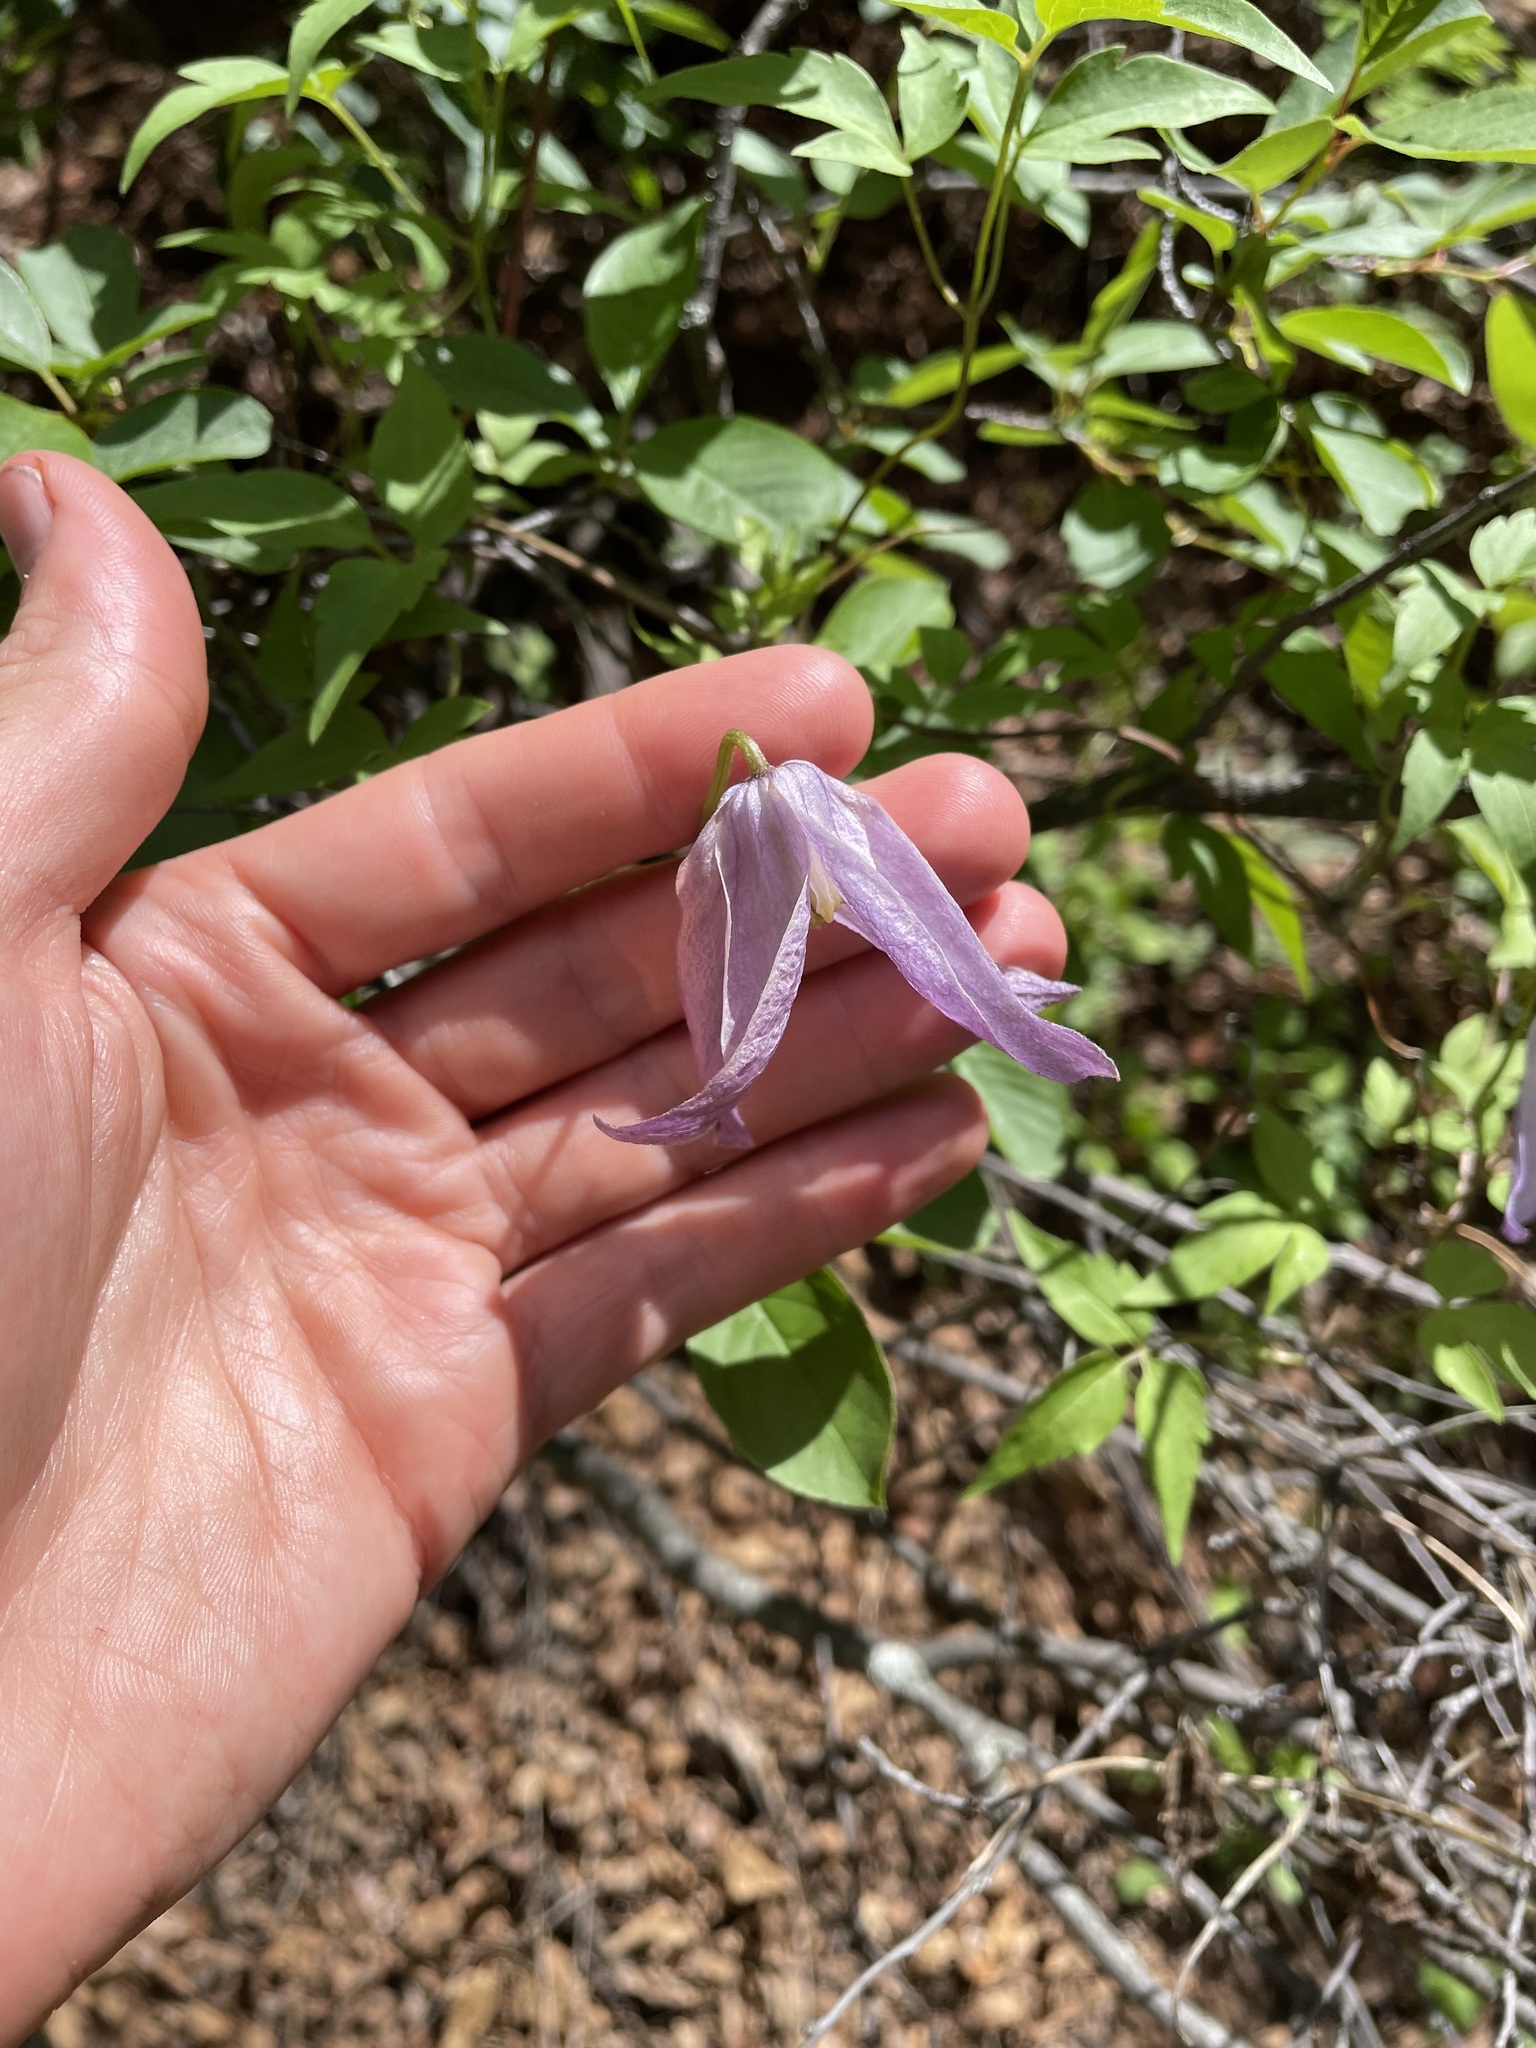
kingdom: Plantae
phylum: Tracheophyta
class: Magnoliopsida
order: Ranunculales
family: Ranunculaceae
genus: Clematis
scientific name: Clematis columbiana
